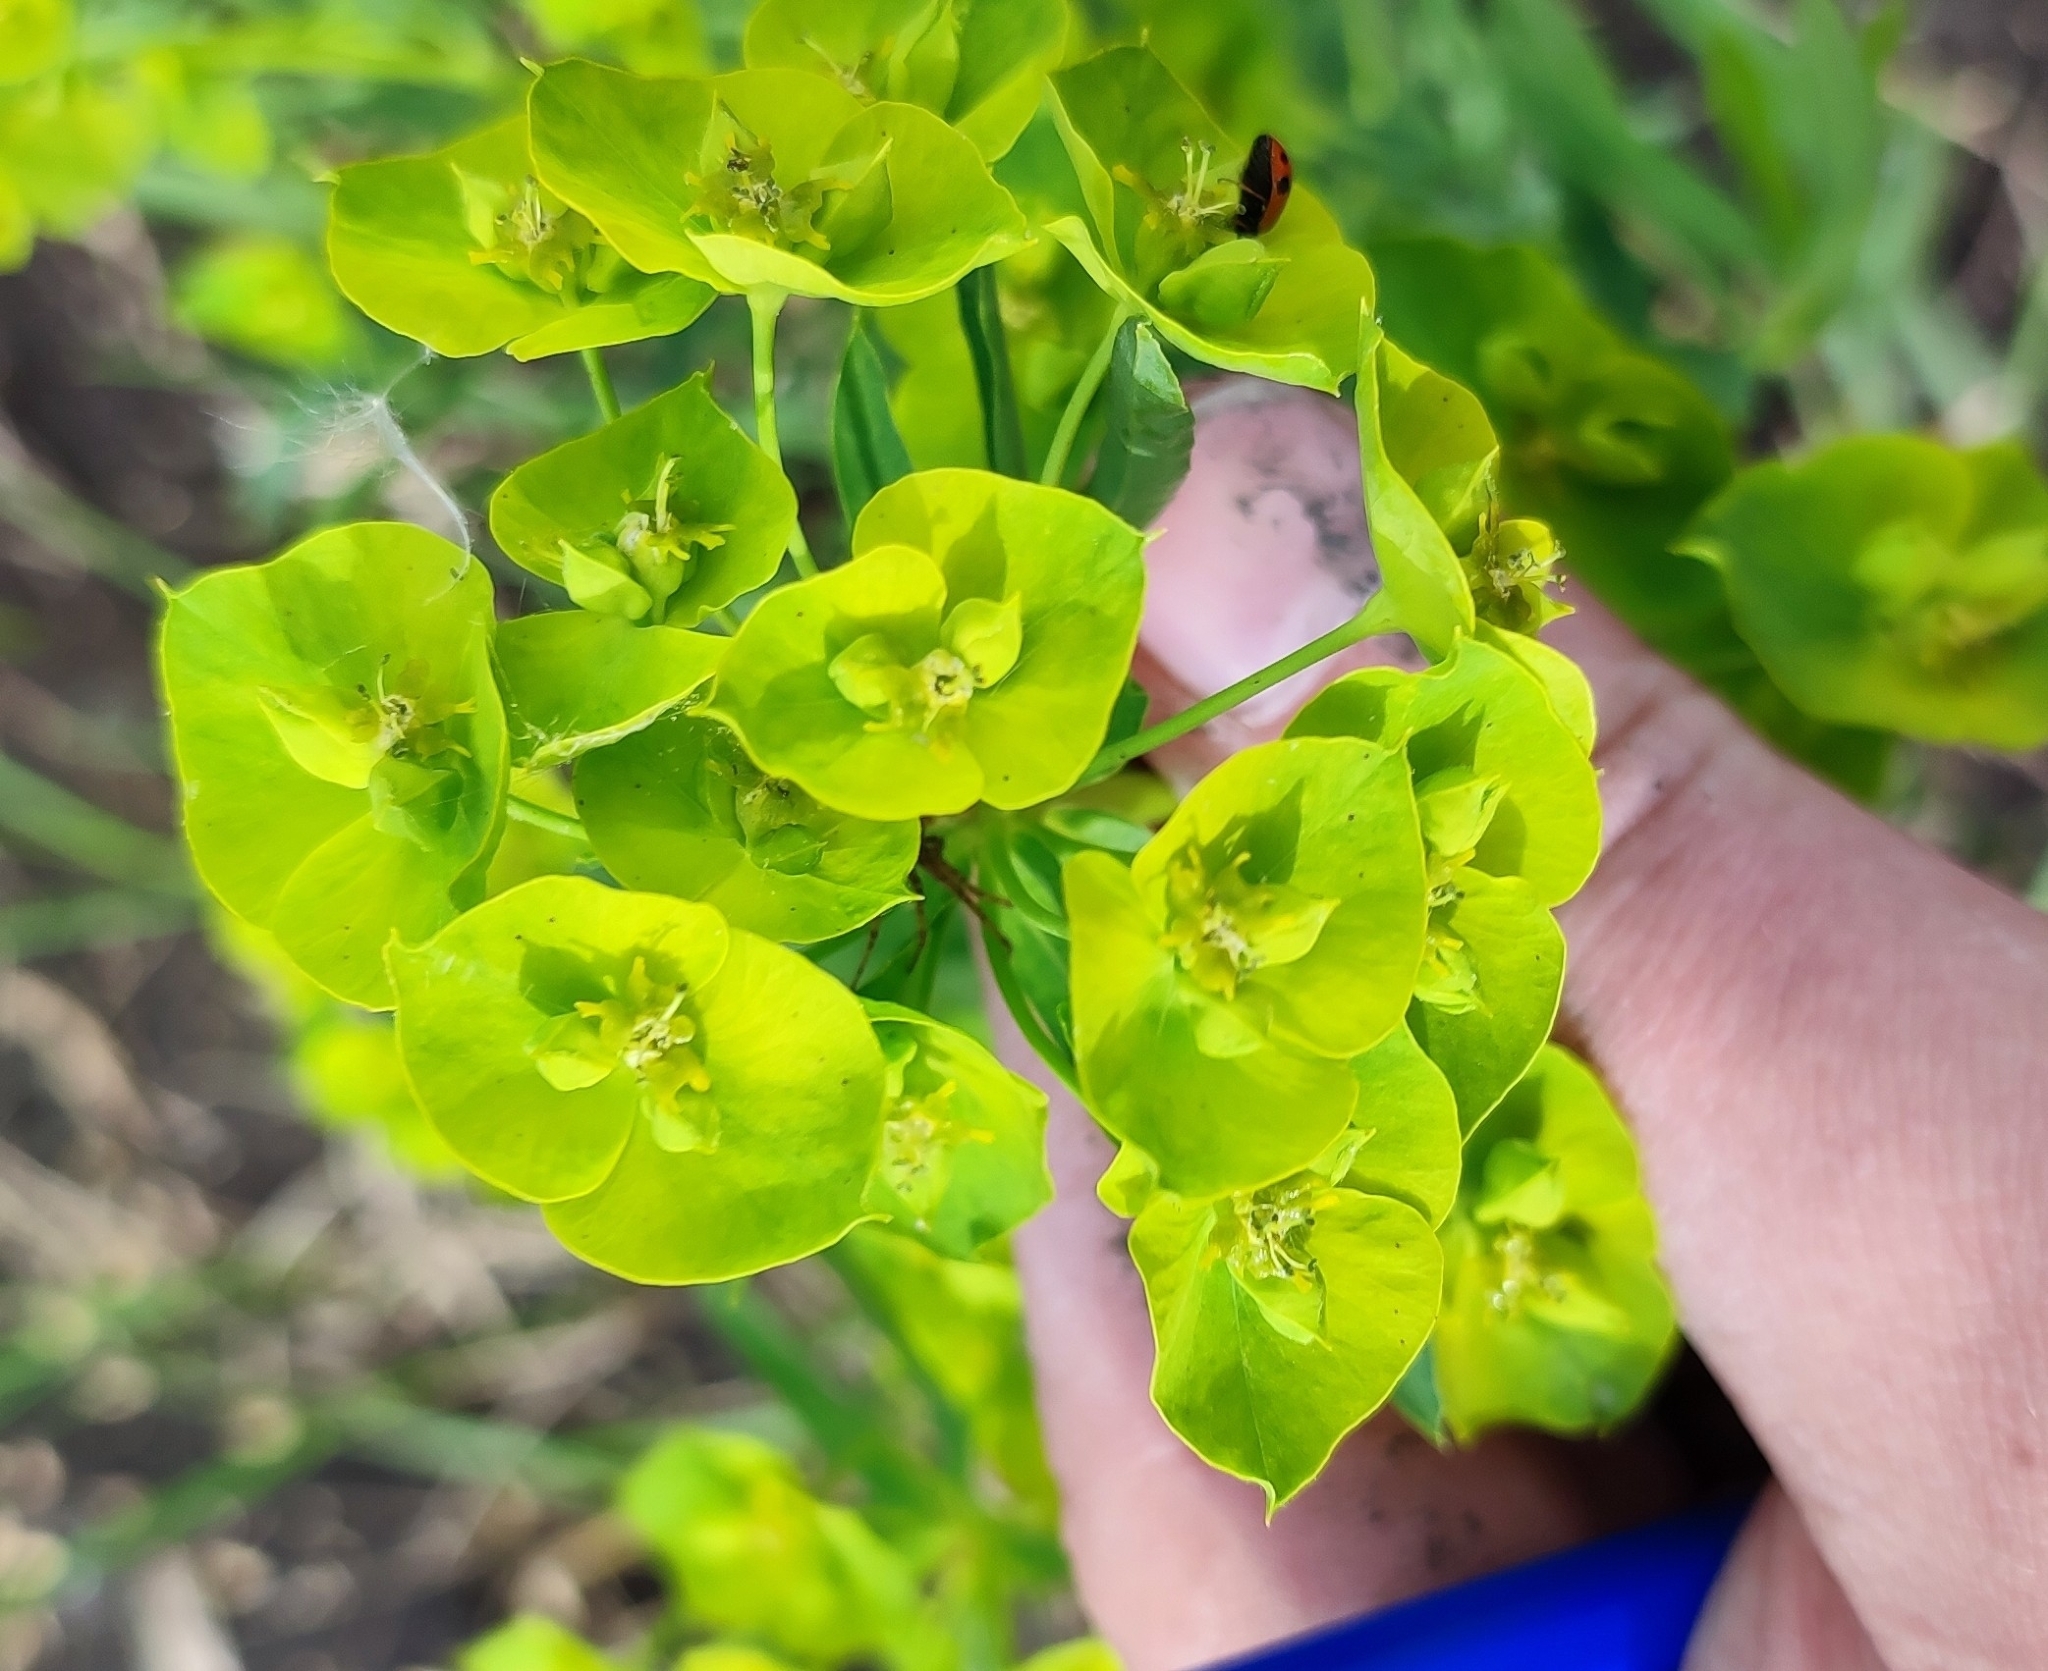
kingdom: Plantae
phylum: Tracheophyta
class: Magnoliopsida
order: Malpighiales
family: Euphorbiaceae
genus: Euphorbia
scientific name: Euphorbia virgata
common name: Leafy spurge
